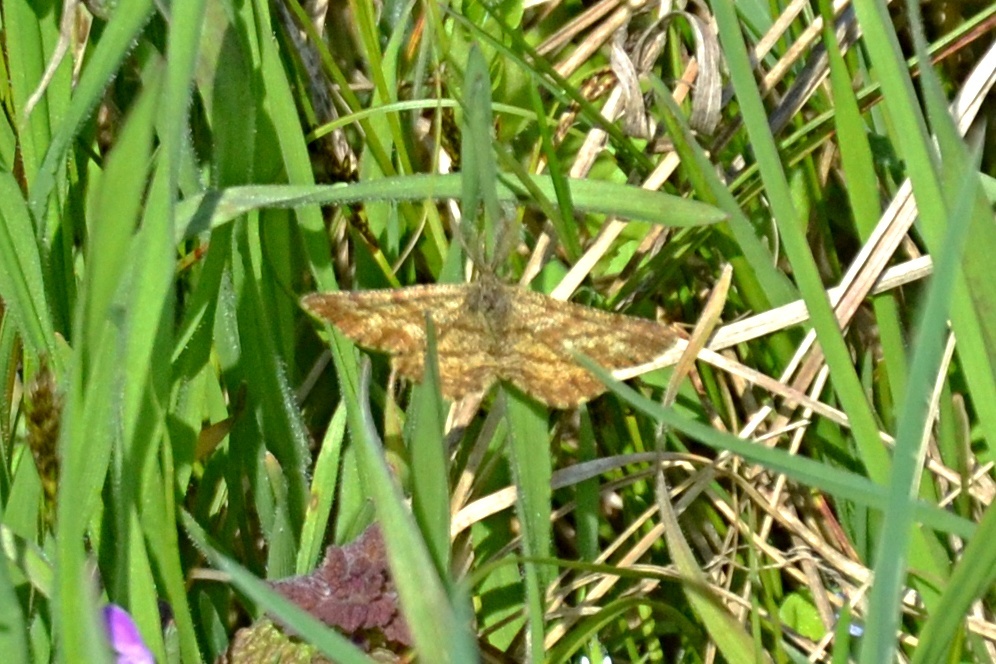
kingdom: Animalia
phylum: Arthropoda
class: Insecta
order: Lepidoptera
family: Geometridae
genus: Ematurga
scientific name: Ematurga atomaria
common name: Common heath
